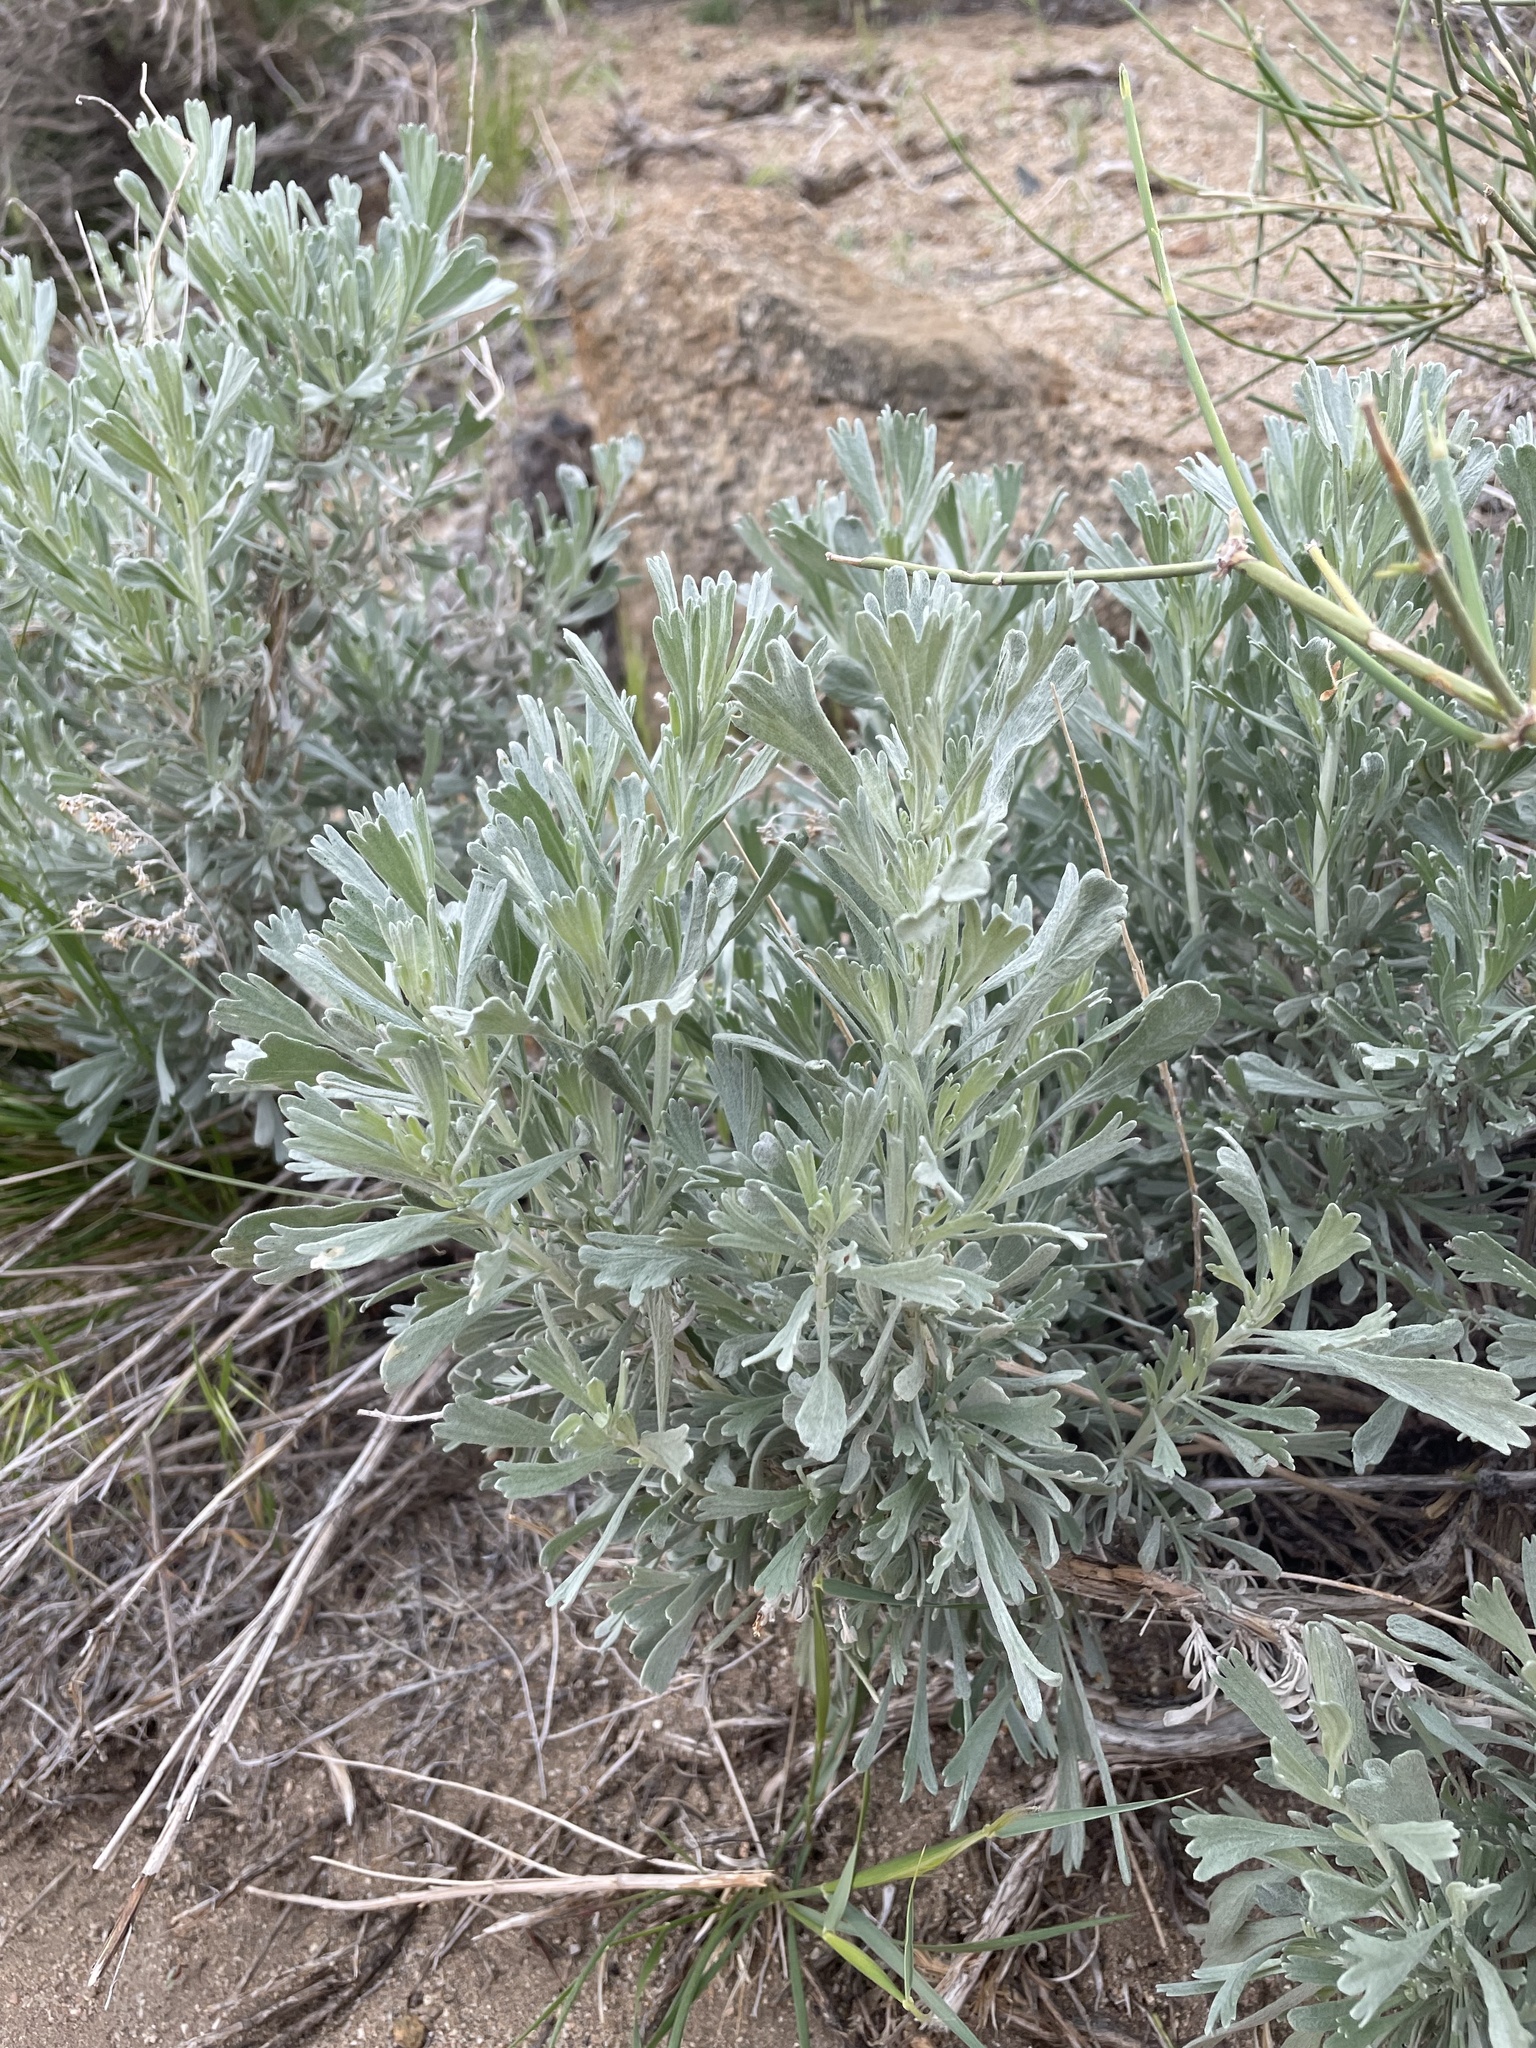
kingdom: Plantae
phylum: Tracheophyta
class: Magnoliopsida
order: Asterales
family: Asteraceae
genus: Artemisia
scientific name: Artemisia tridentata
